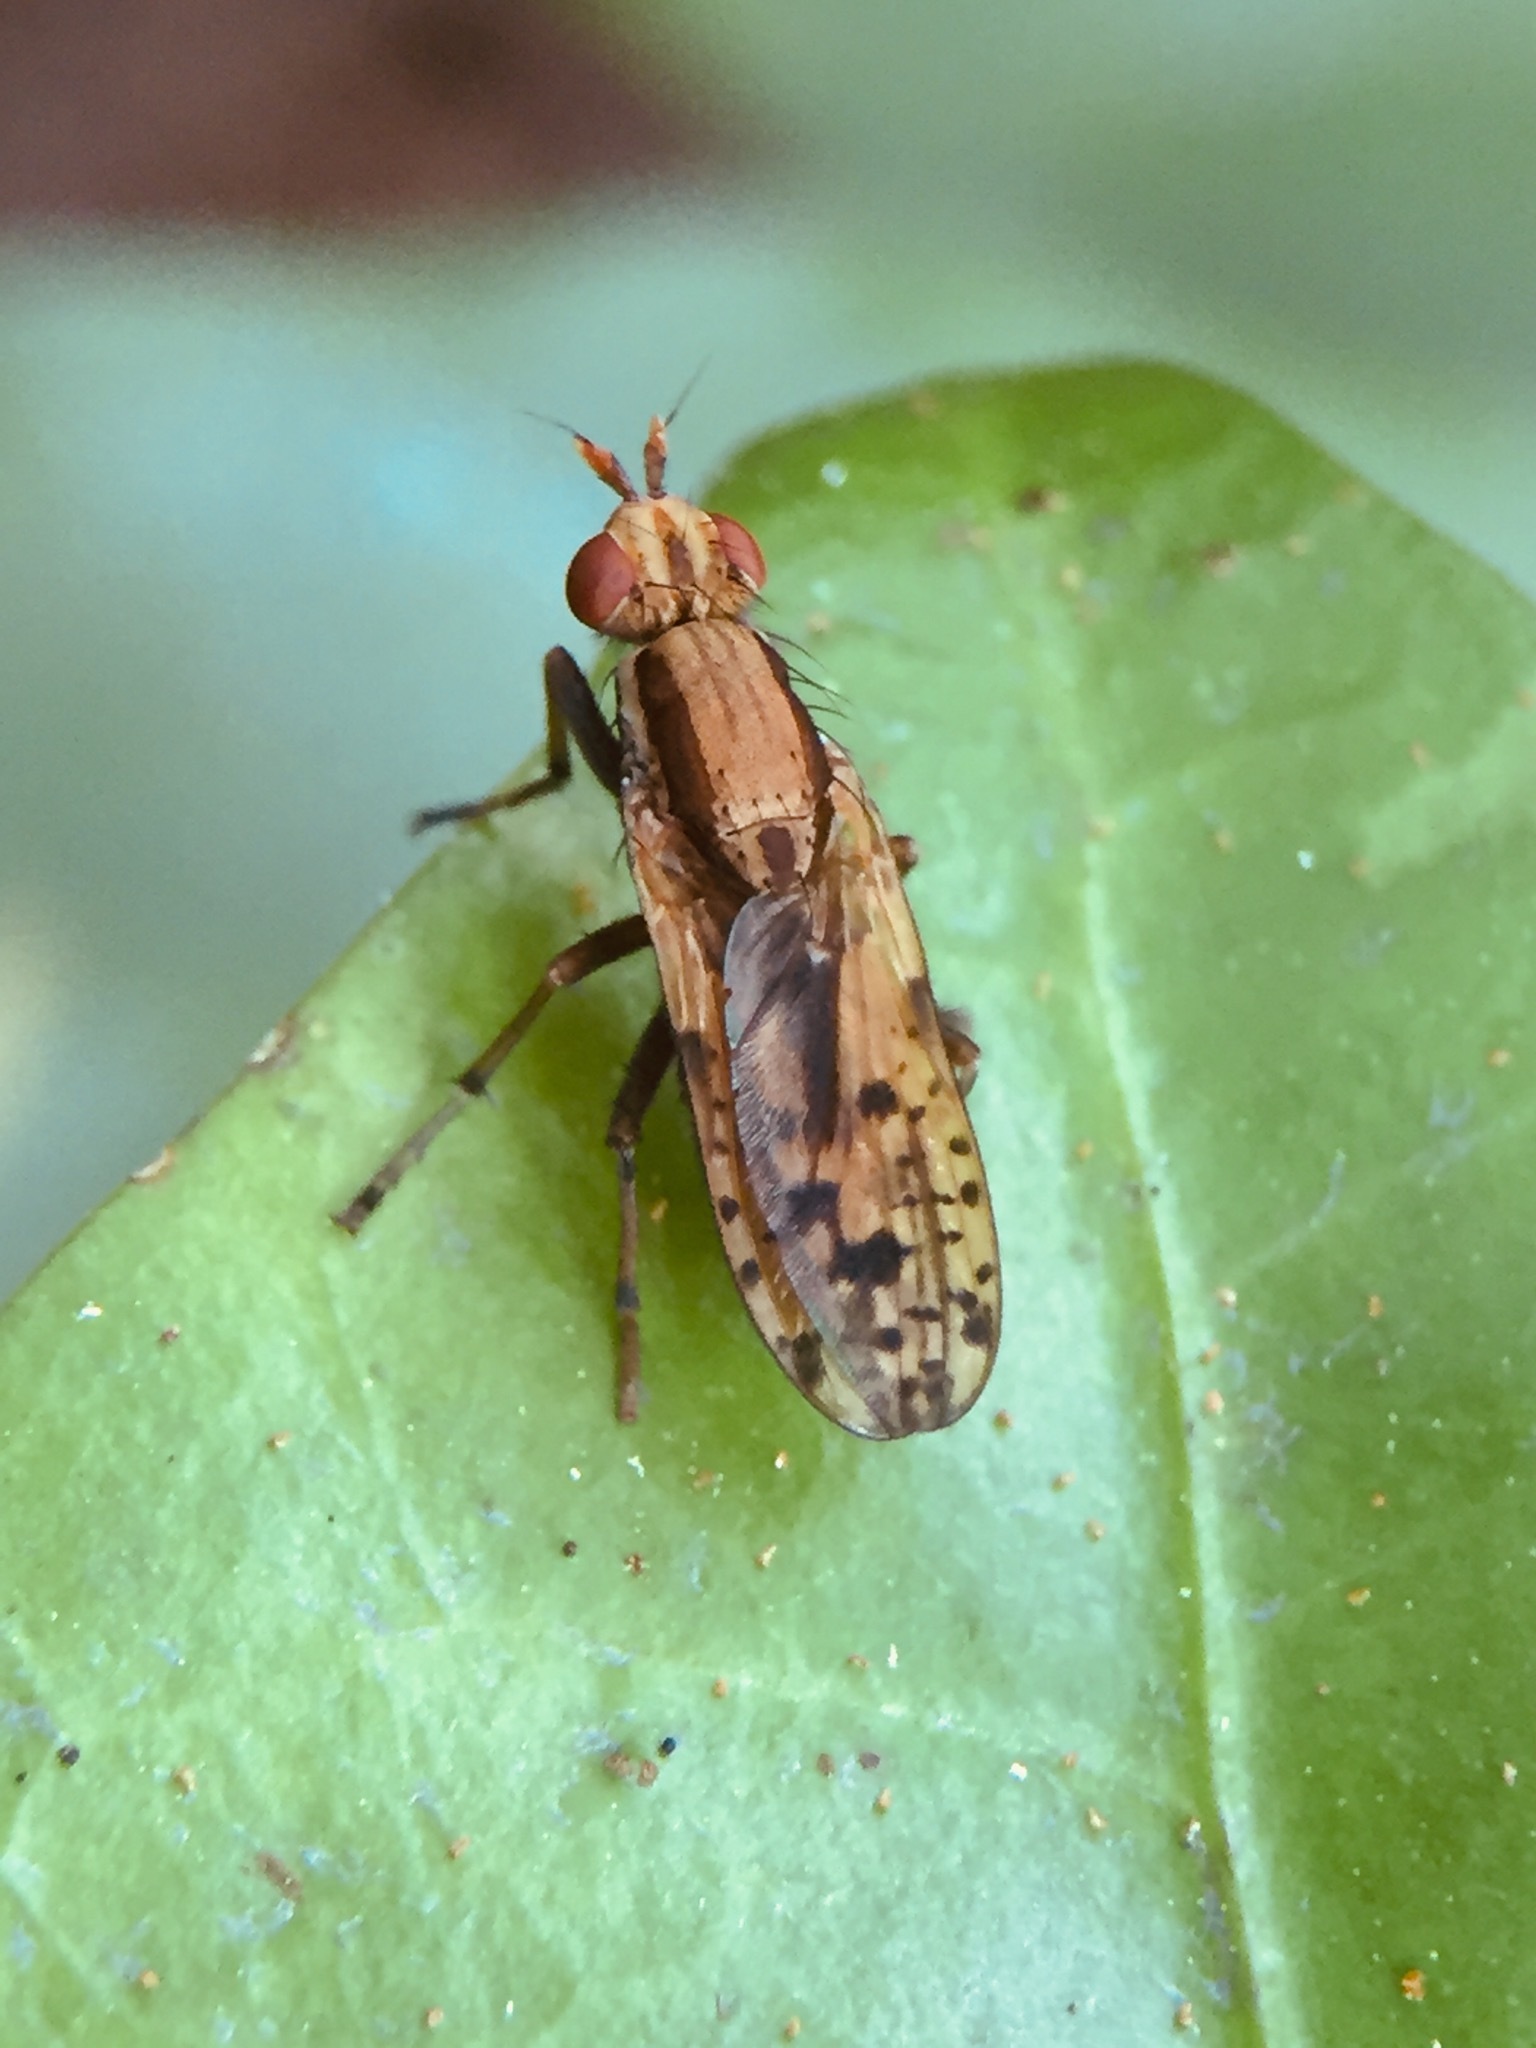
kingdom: Animalia
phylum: Arthropoda
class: Insecta
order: Diptera
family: Sciomyzidae
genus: Neolimnia
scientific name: Neolimnia tranquilla
